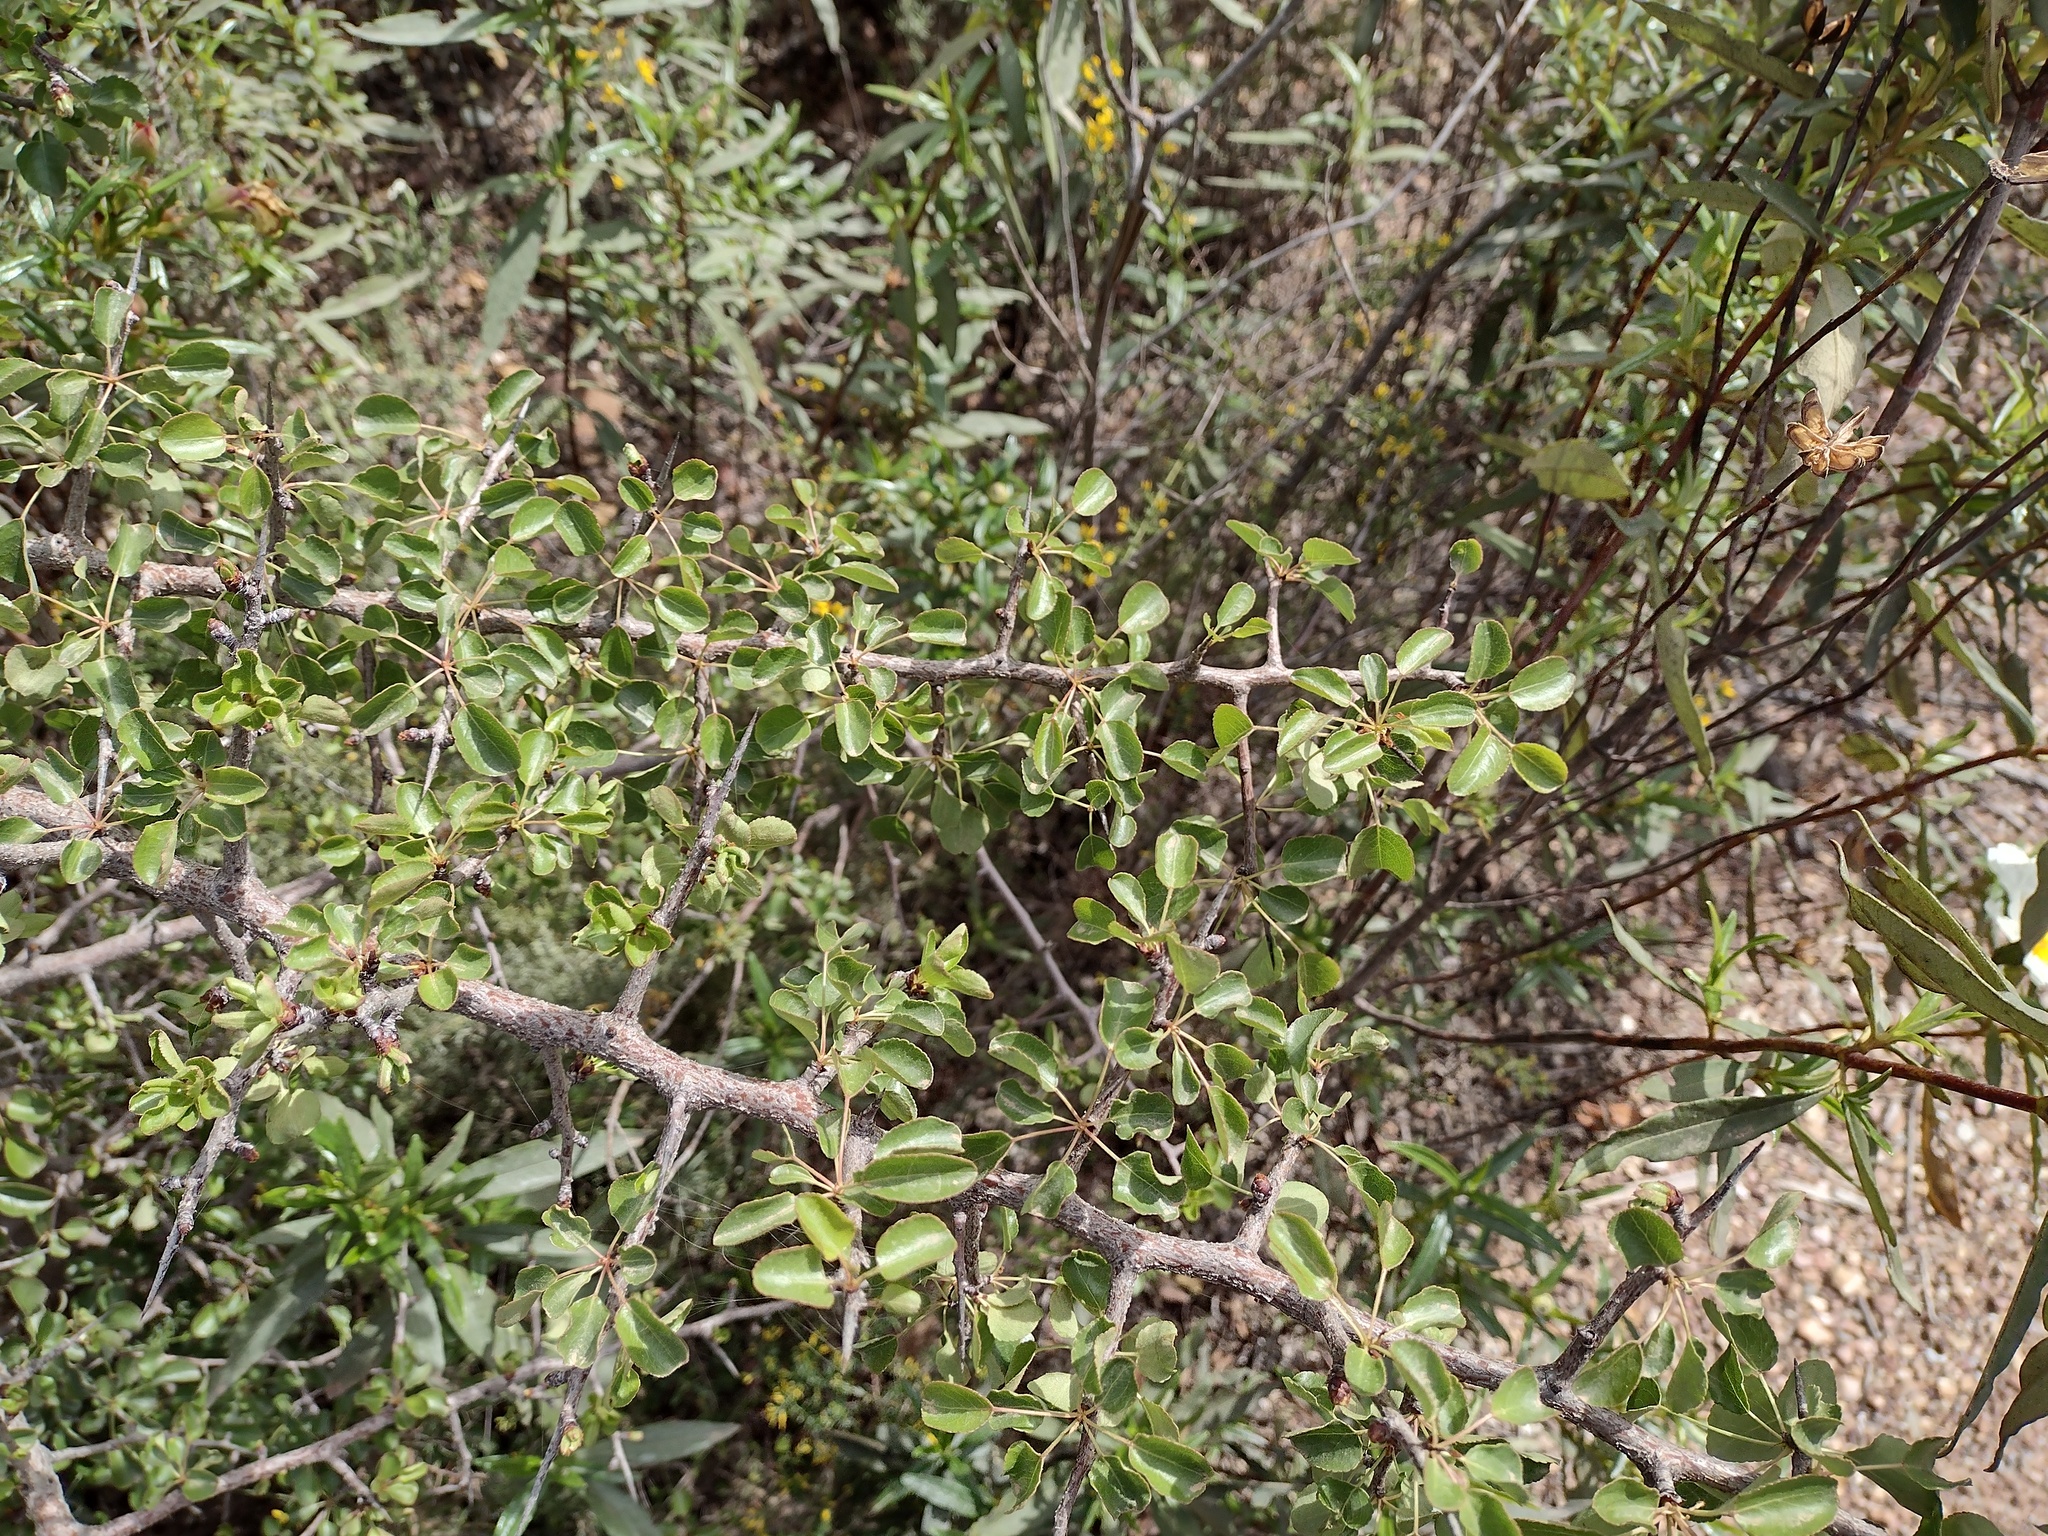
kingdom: Plantae
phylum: Tracheophyta
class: Magnoliopsida
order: Rosales
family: Rosaceae
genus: Pyrus
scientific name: Pyrus bourgaeana
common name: Iberian pear
